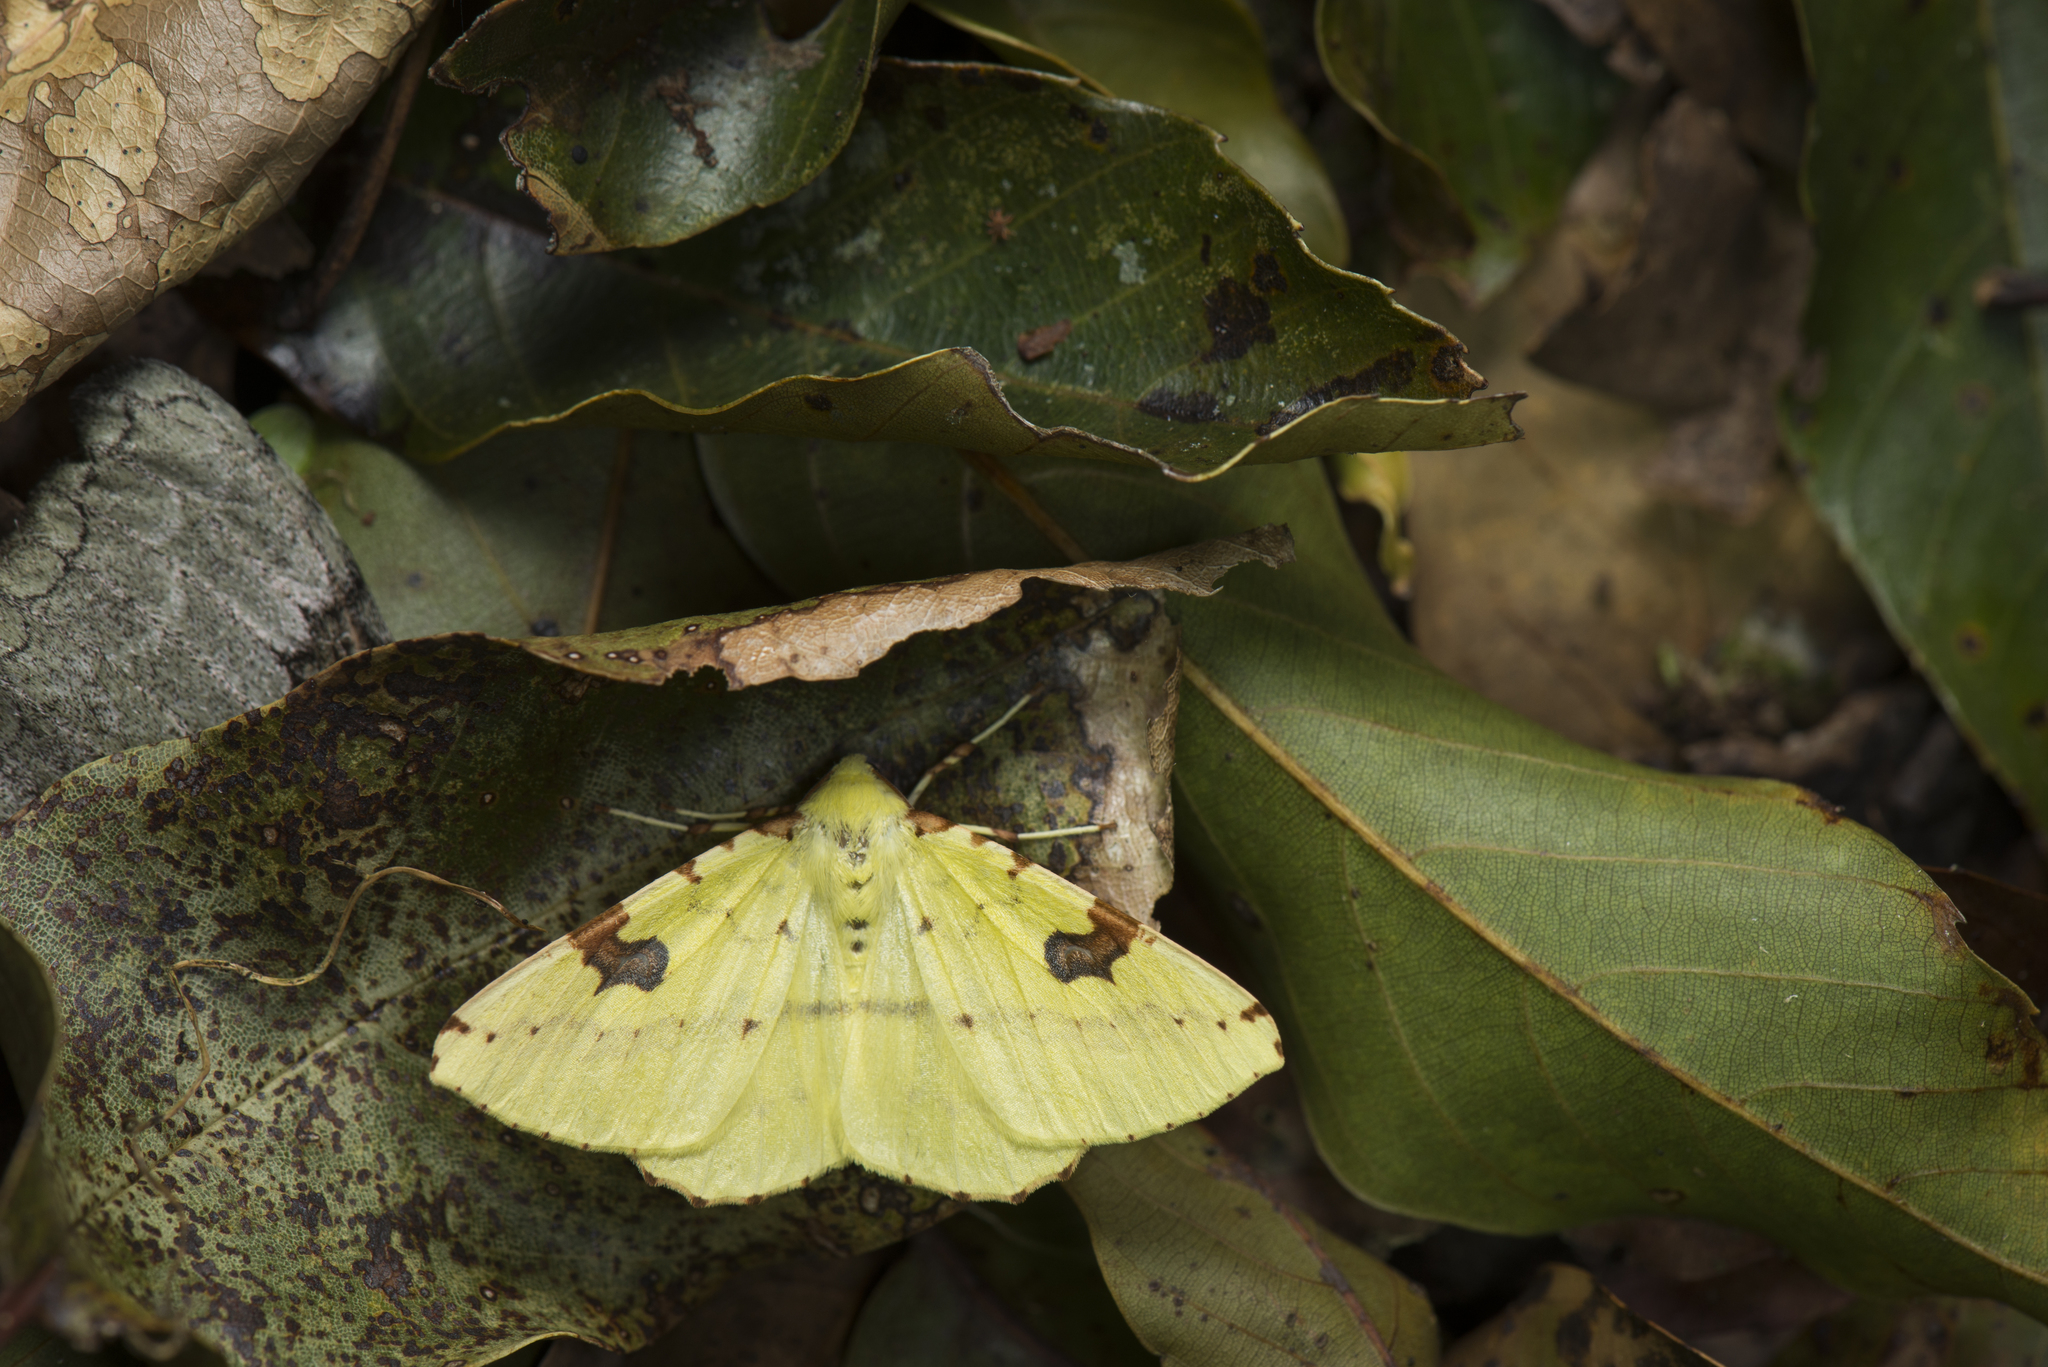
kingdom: Animalia
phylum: Arthropoda
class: Insecta
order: Lepidoptera
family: Geometridae
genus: Opisthograptis
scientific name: Opisthograptis punctilineata
